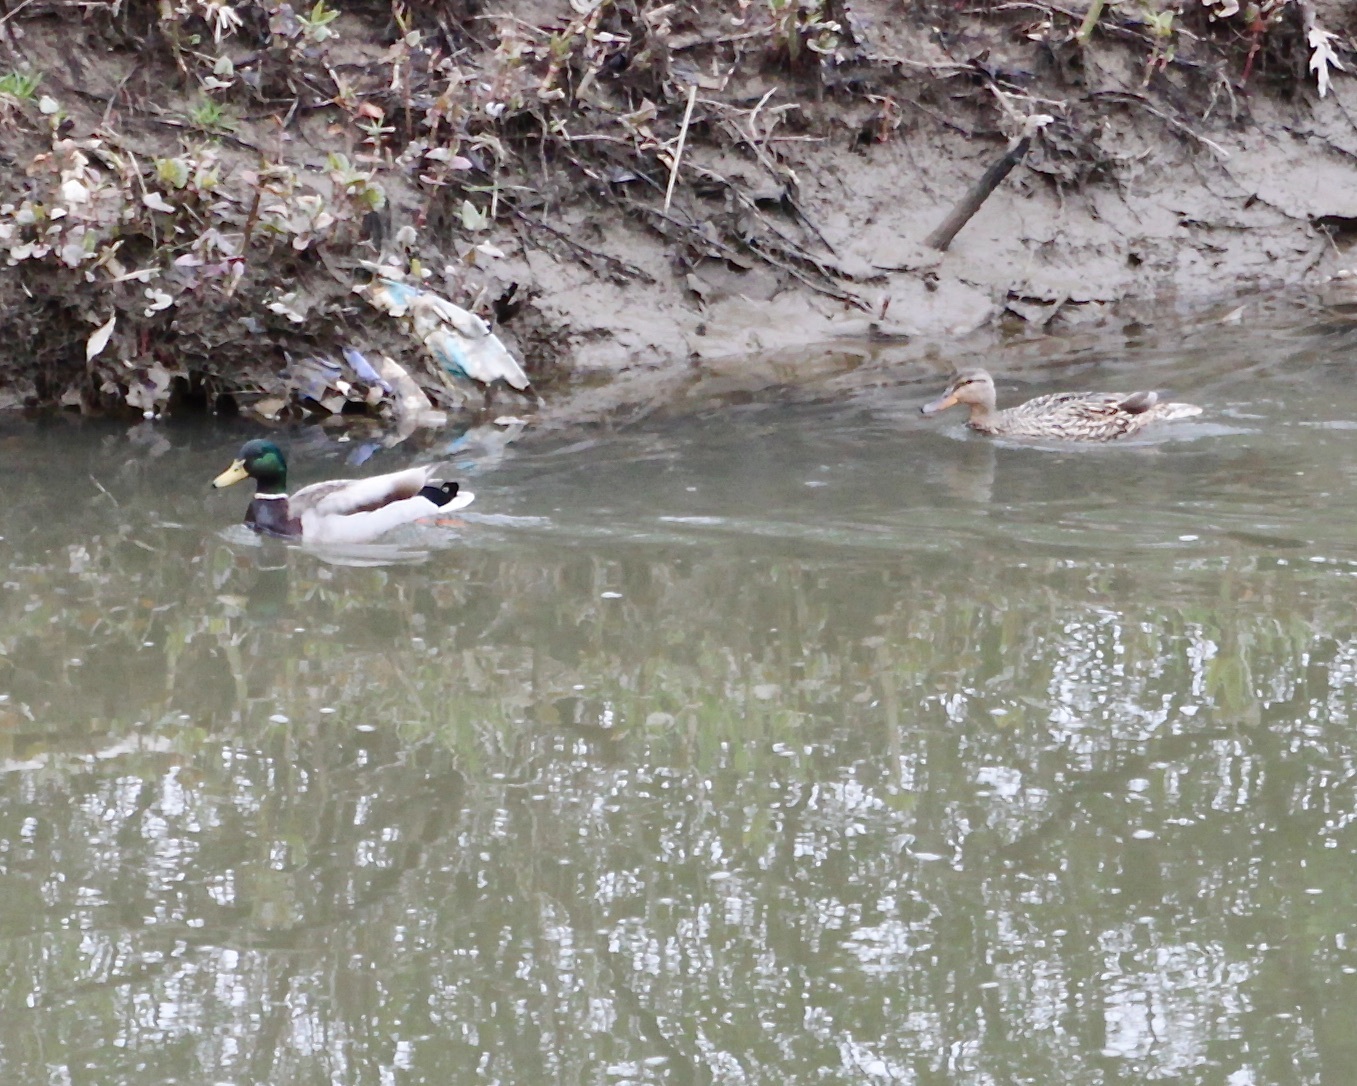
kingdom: Animalia
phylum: Chordata
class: Aves
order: Anseriformes
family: Anatidae
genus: Anas
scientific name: Anas platyrhynchos
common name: Mallard
